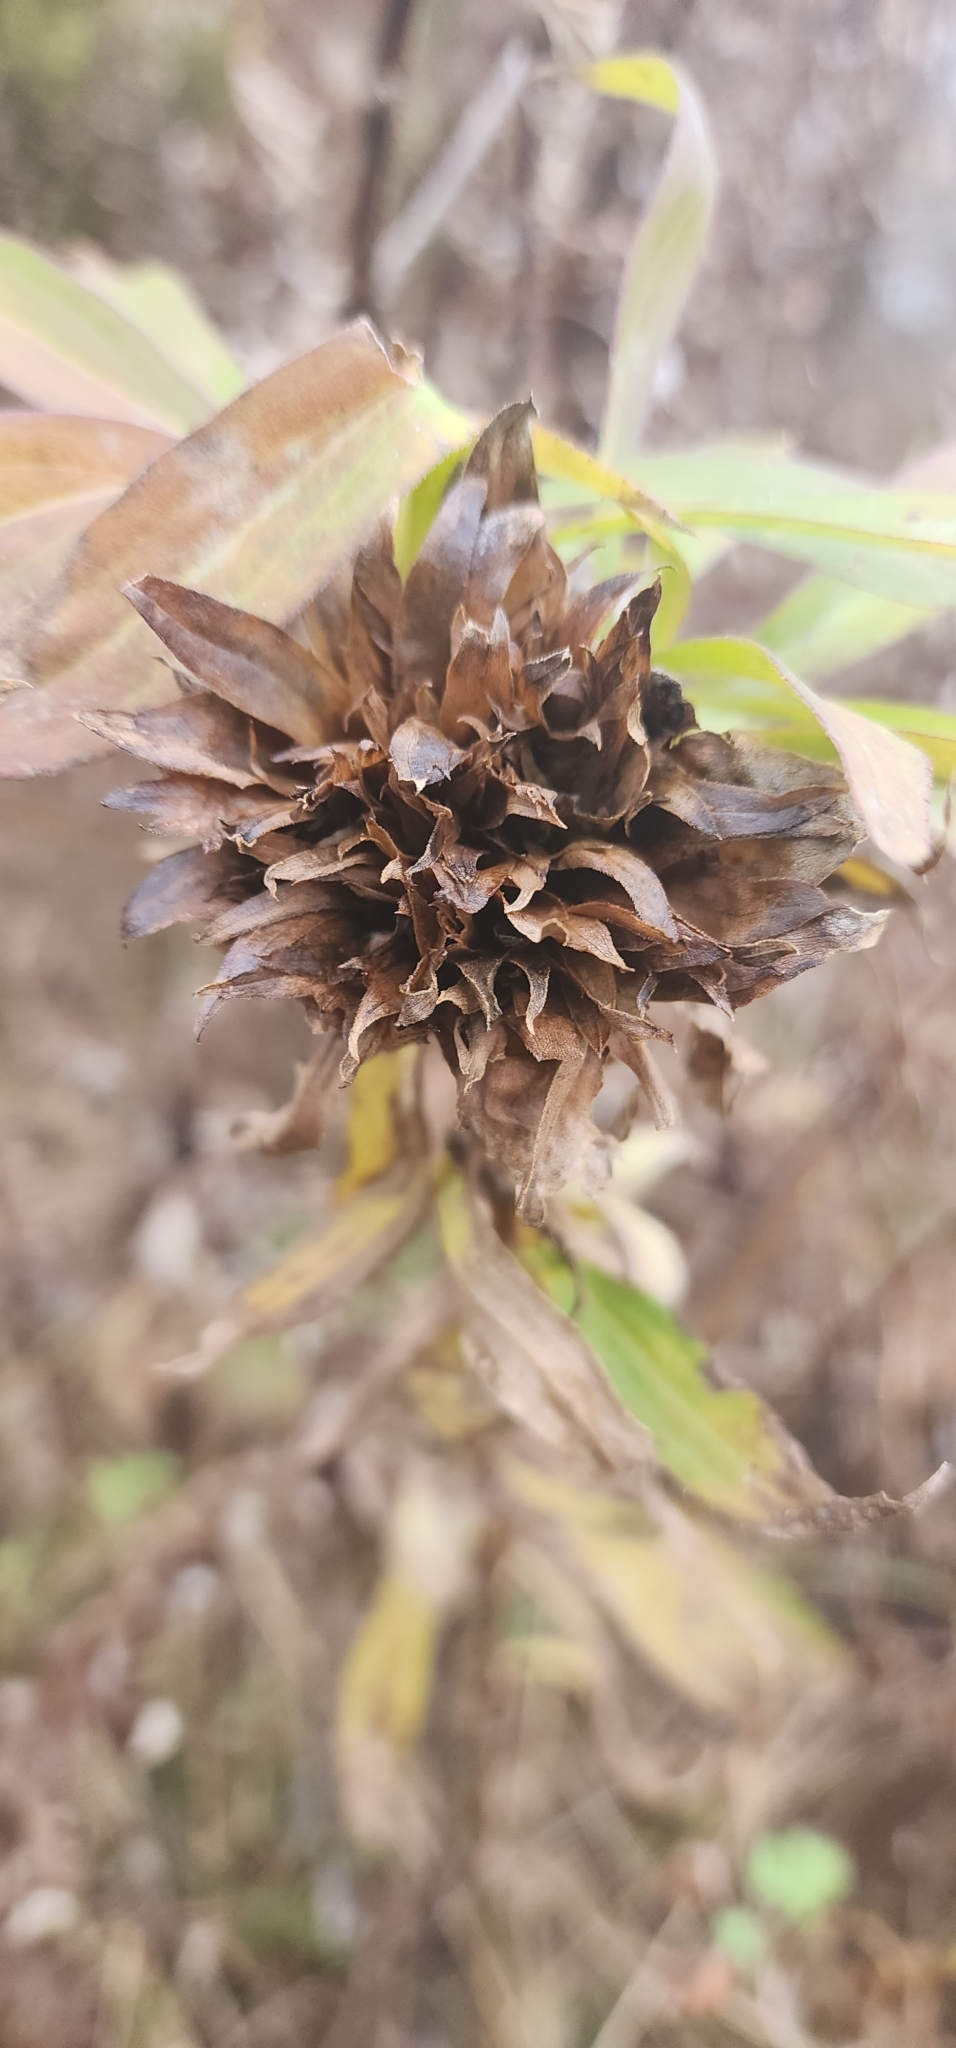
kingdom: Animalia
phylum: Arthropoda
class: Insecta
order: Diptera
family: Cecidomyiidae
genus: Rhopalomyia
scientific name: Rhopalomyia solidaginis
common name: Goldenrod bunch gall midge
